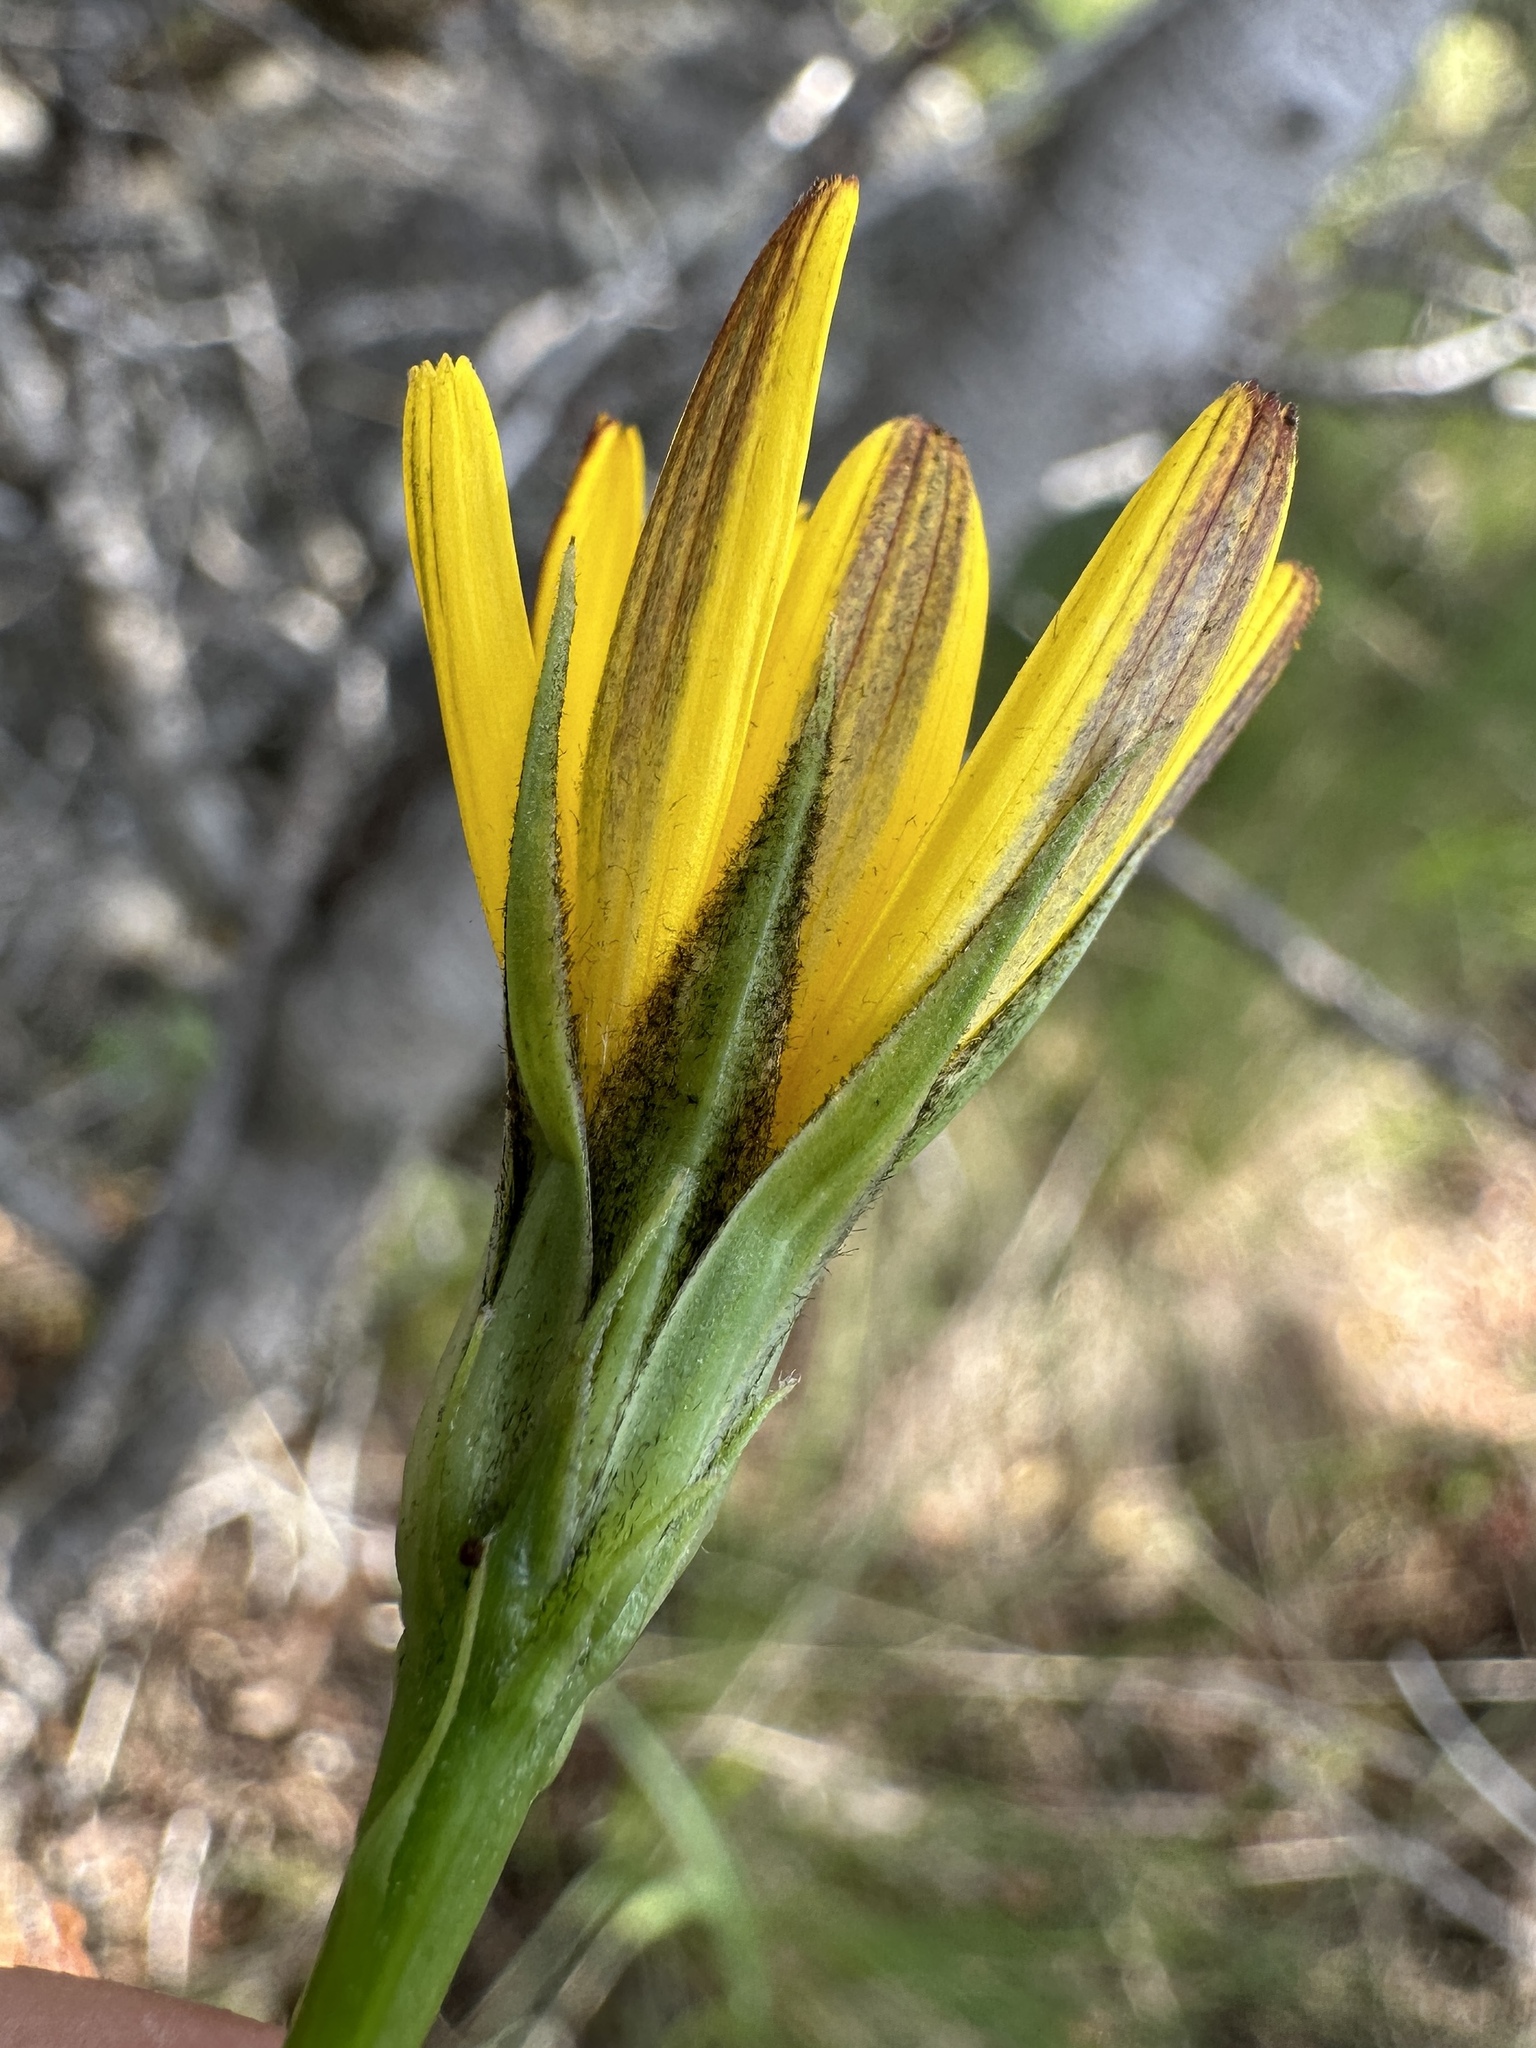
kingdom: Plantae
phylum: Tracheophyta
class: Magnoliopsida
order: Asterales
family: Asteraceae
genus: Microseris
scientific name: Microseris nutans
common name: Nodding microseris
